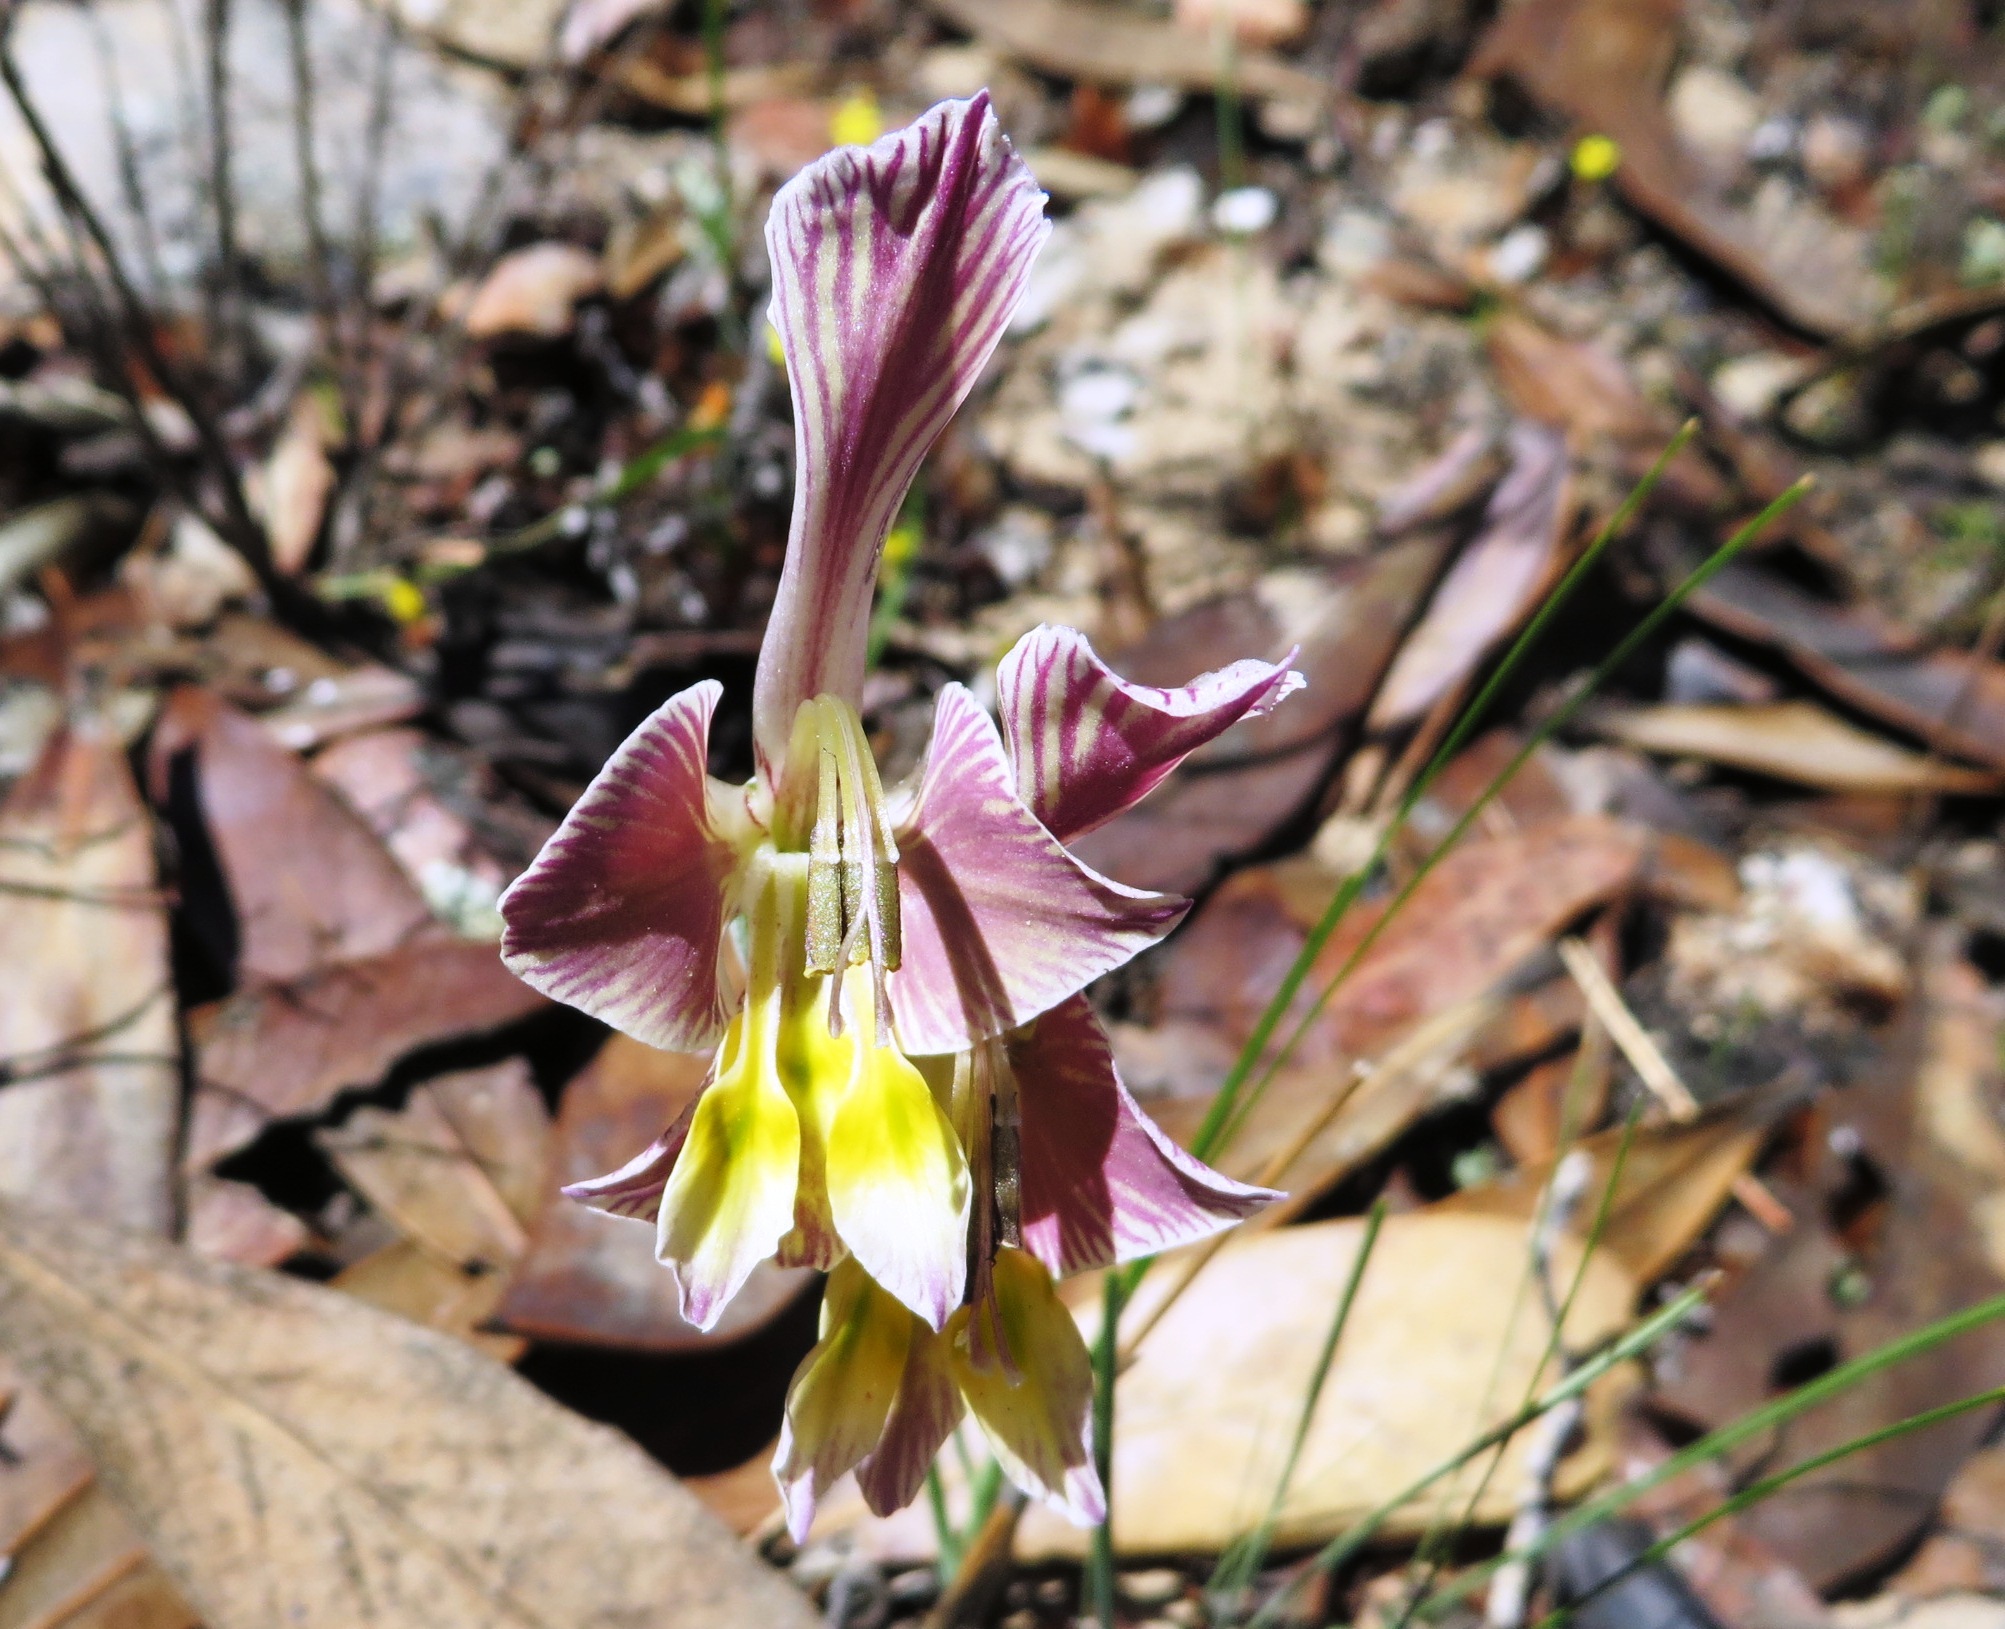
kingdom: Plantae
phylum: Tracheophyta
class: Liliopsida
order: Asparagales
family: Iridaceae
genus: Gladiolus
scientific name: Gladiolus virescens
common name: Yellow kalkoentjie
